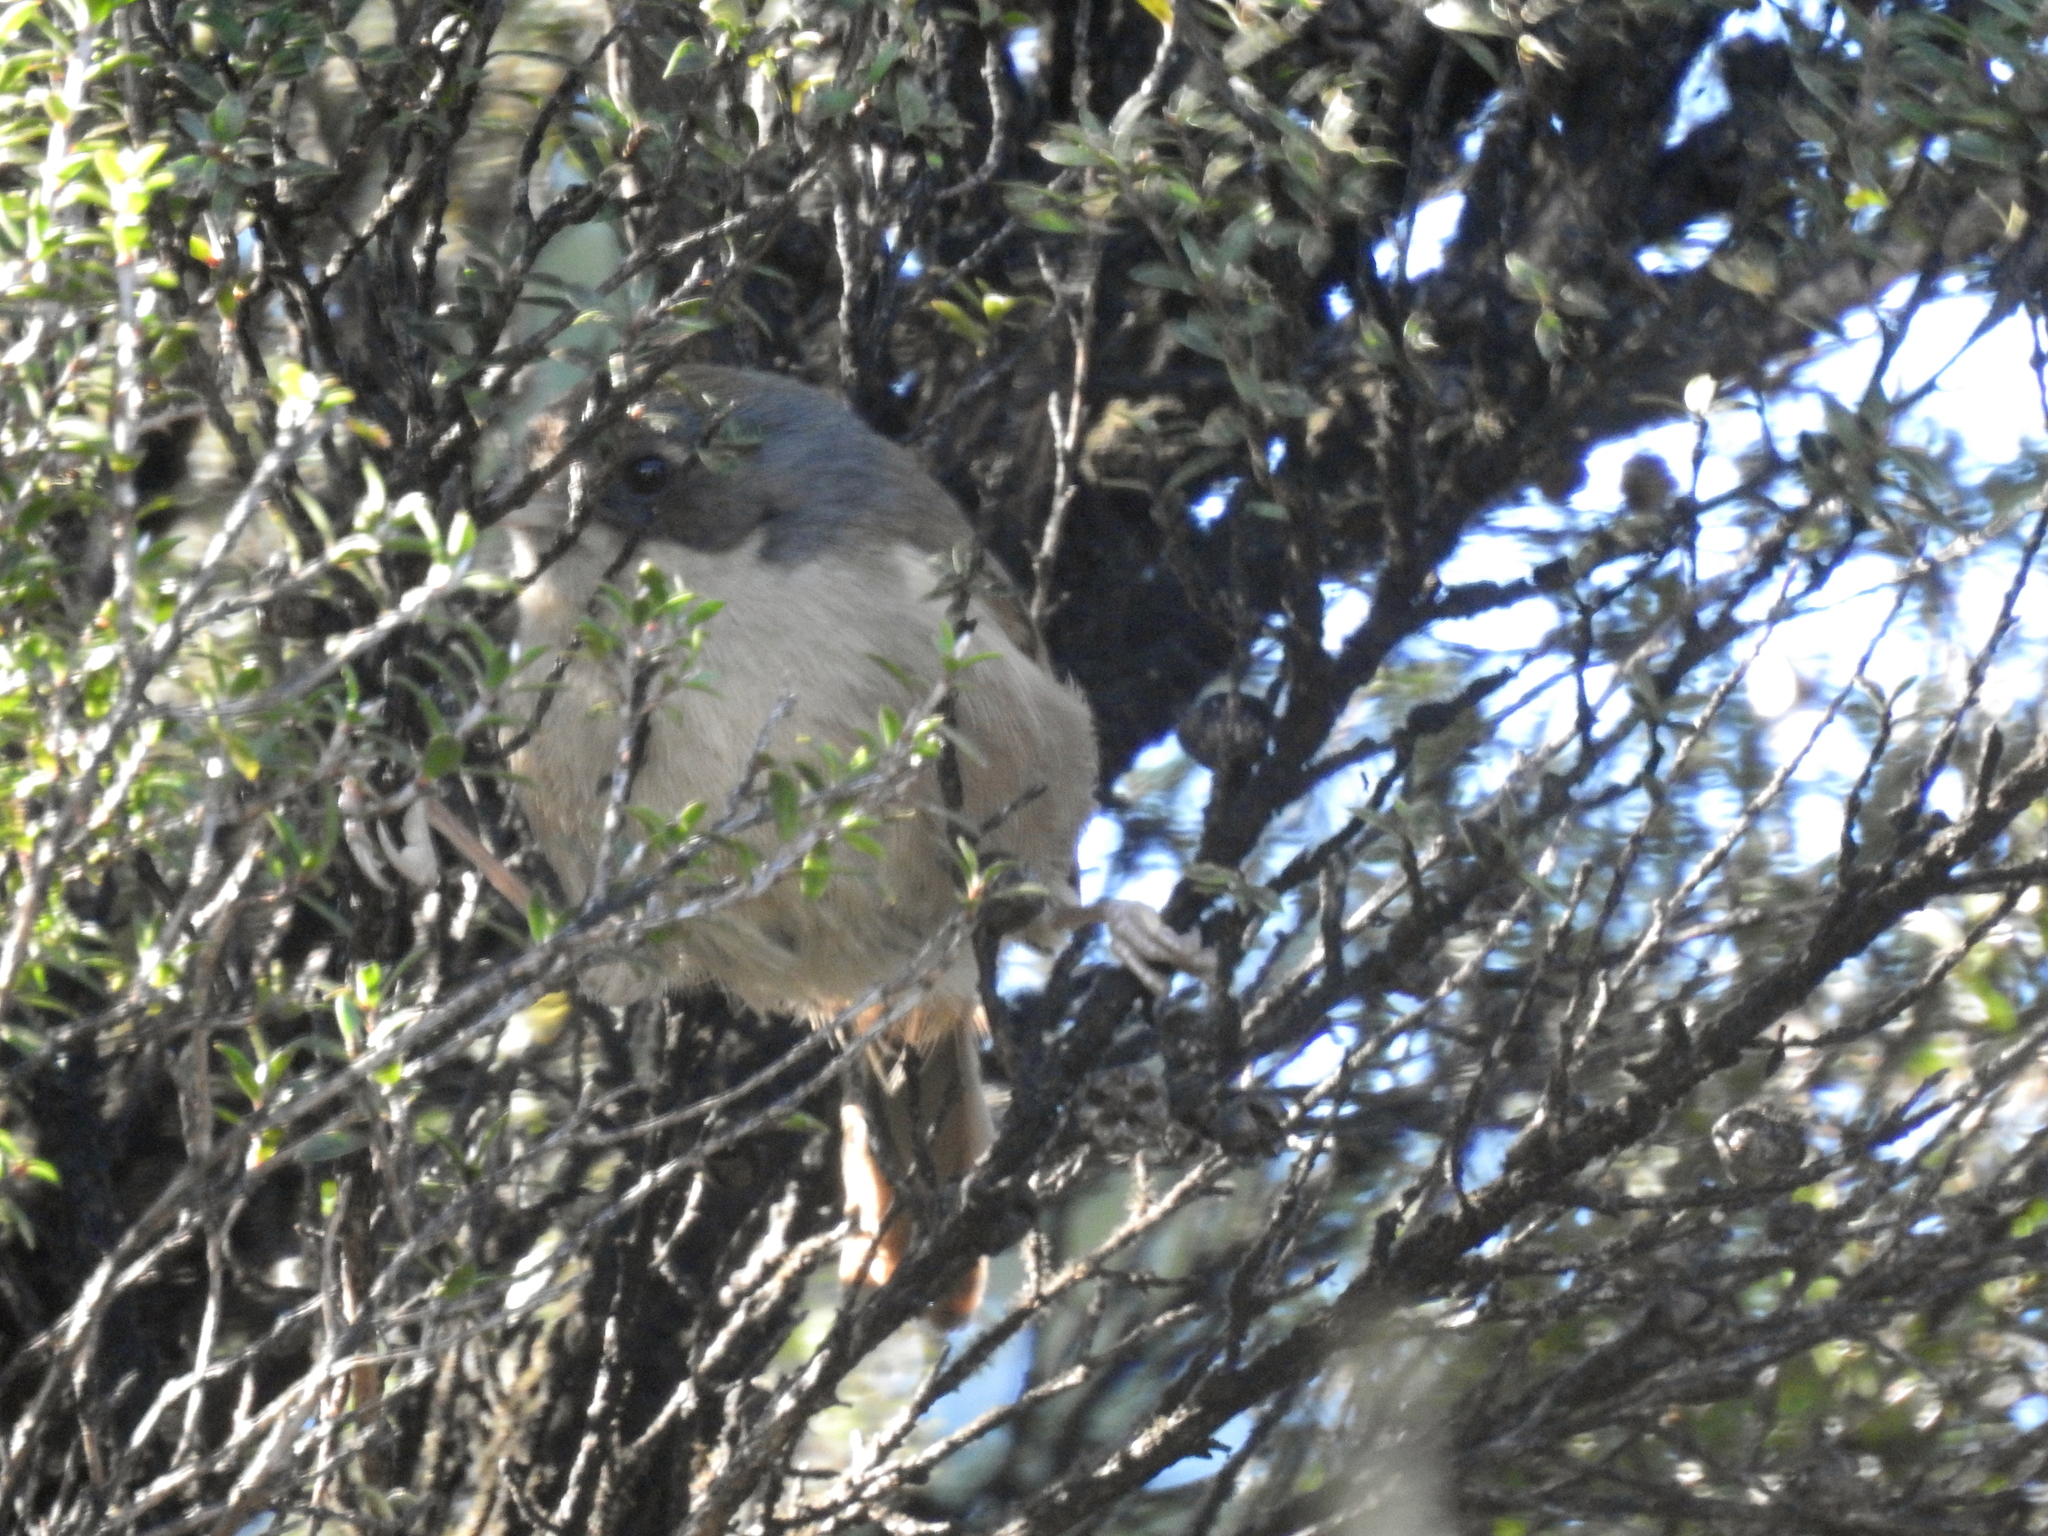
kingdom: Animalia
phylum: Chordata
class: Aves
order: Passeriformes
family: Petroicidae
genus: Petroica
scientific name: Petroica macrocephala
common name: Tomtit
